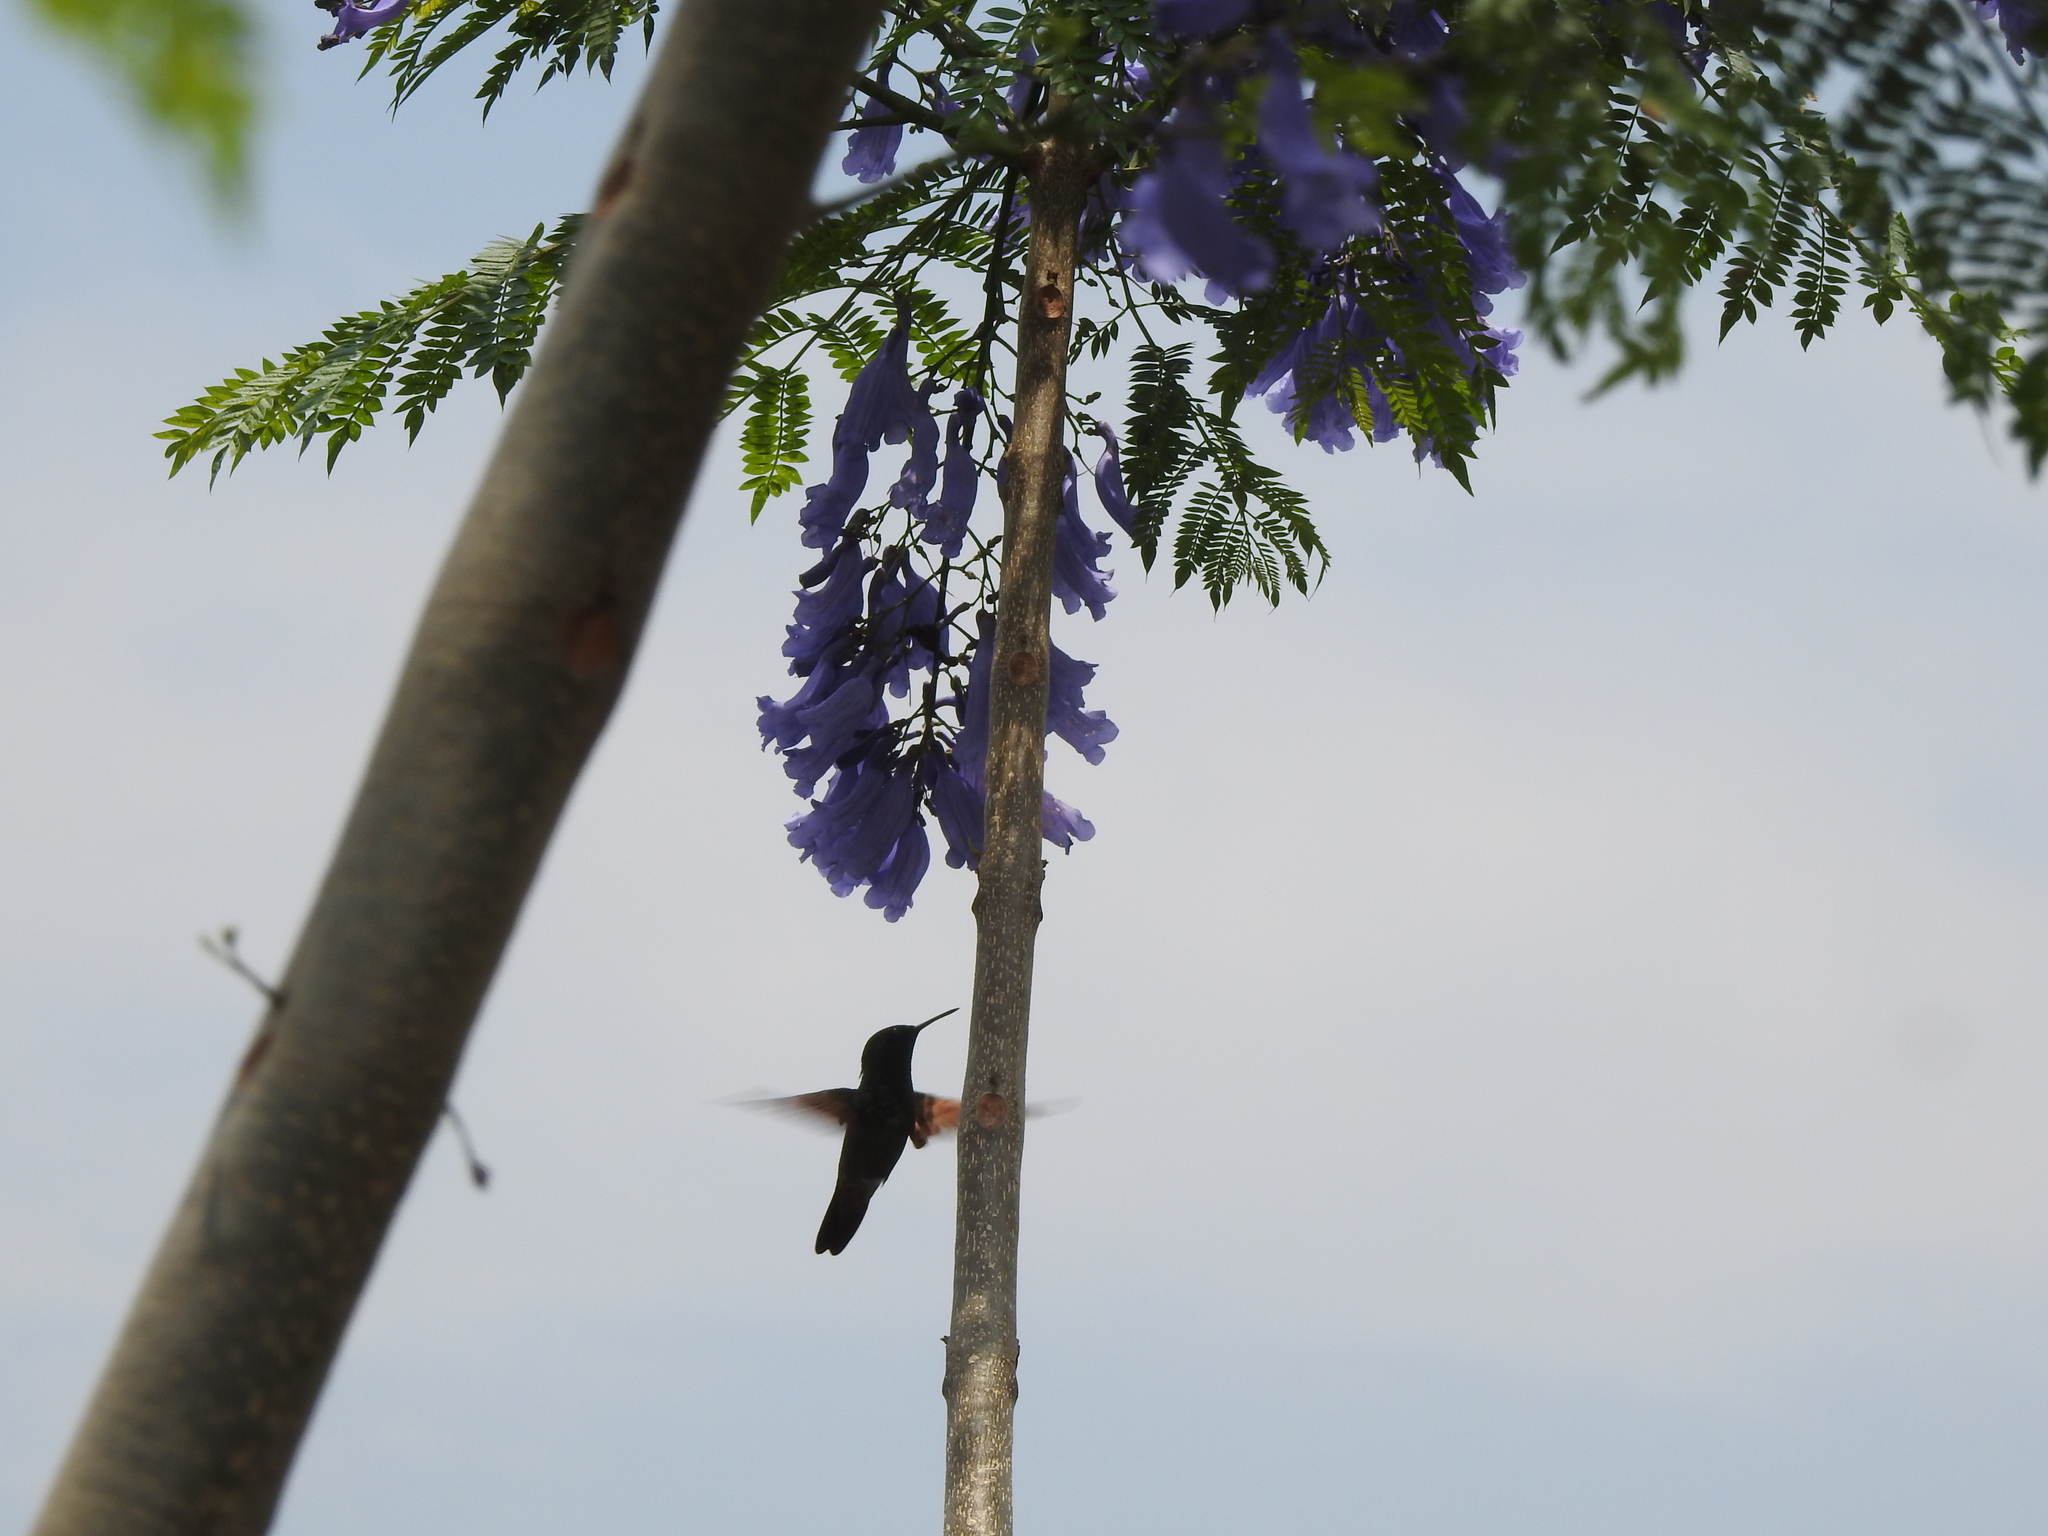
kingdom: Animalia
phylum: Chordata
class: Aves
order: Apodiformes
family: Trochilidae
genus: Saucerottia
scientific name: Saucerottia beryllina
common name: Berylline hummingbird
